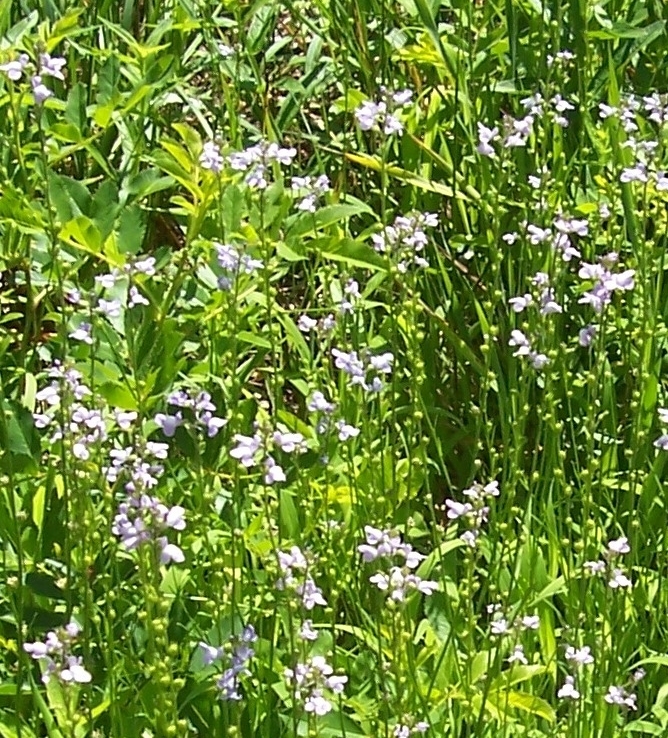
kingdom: Plantae
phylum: Tracheophyta
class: Magnoliopsida
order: Lamiales
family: Plantaginaceae
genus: Nuttallanthus
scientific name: Nuttallanthus canadensis
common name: Blue toadflax
